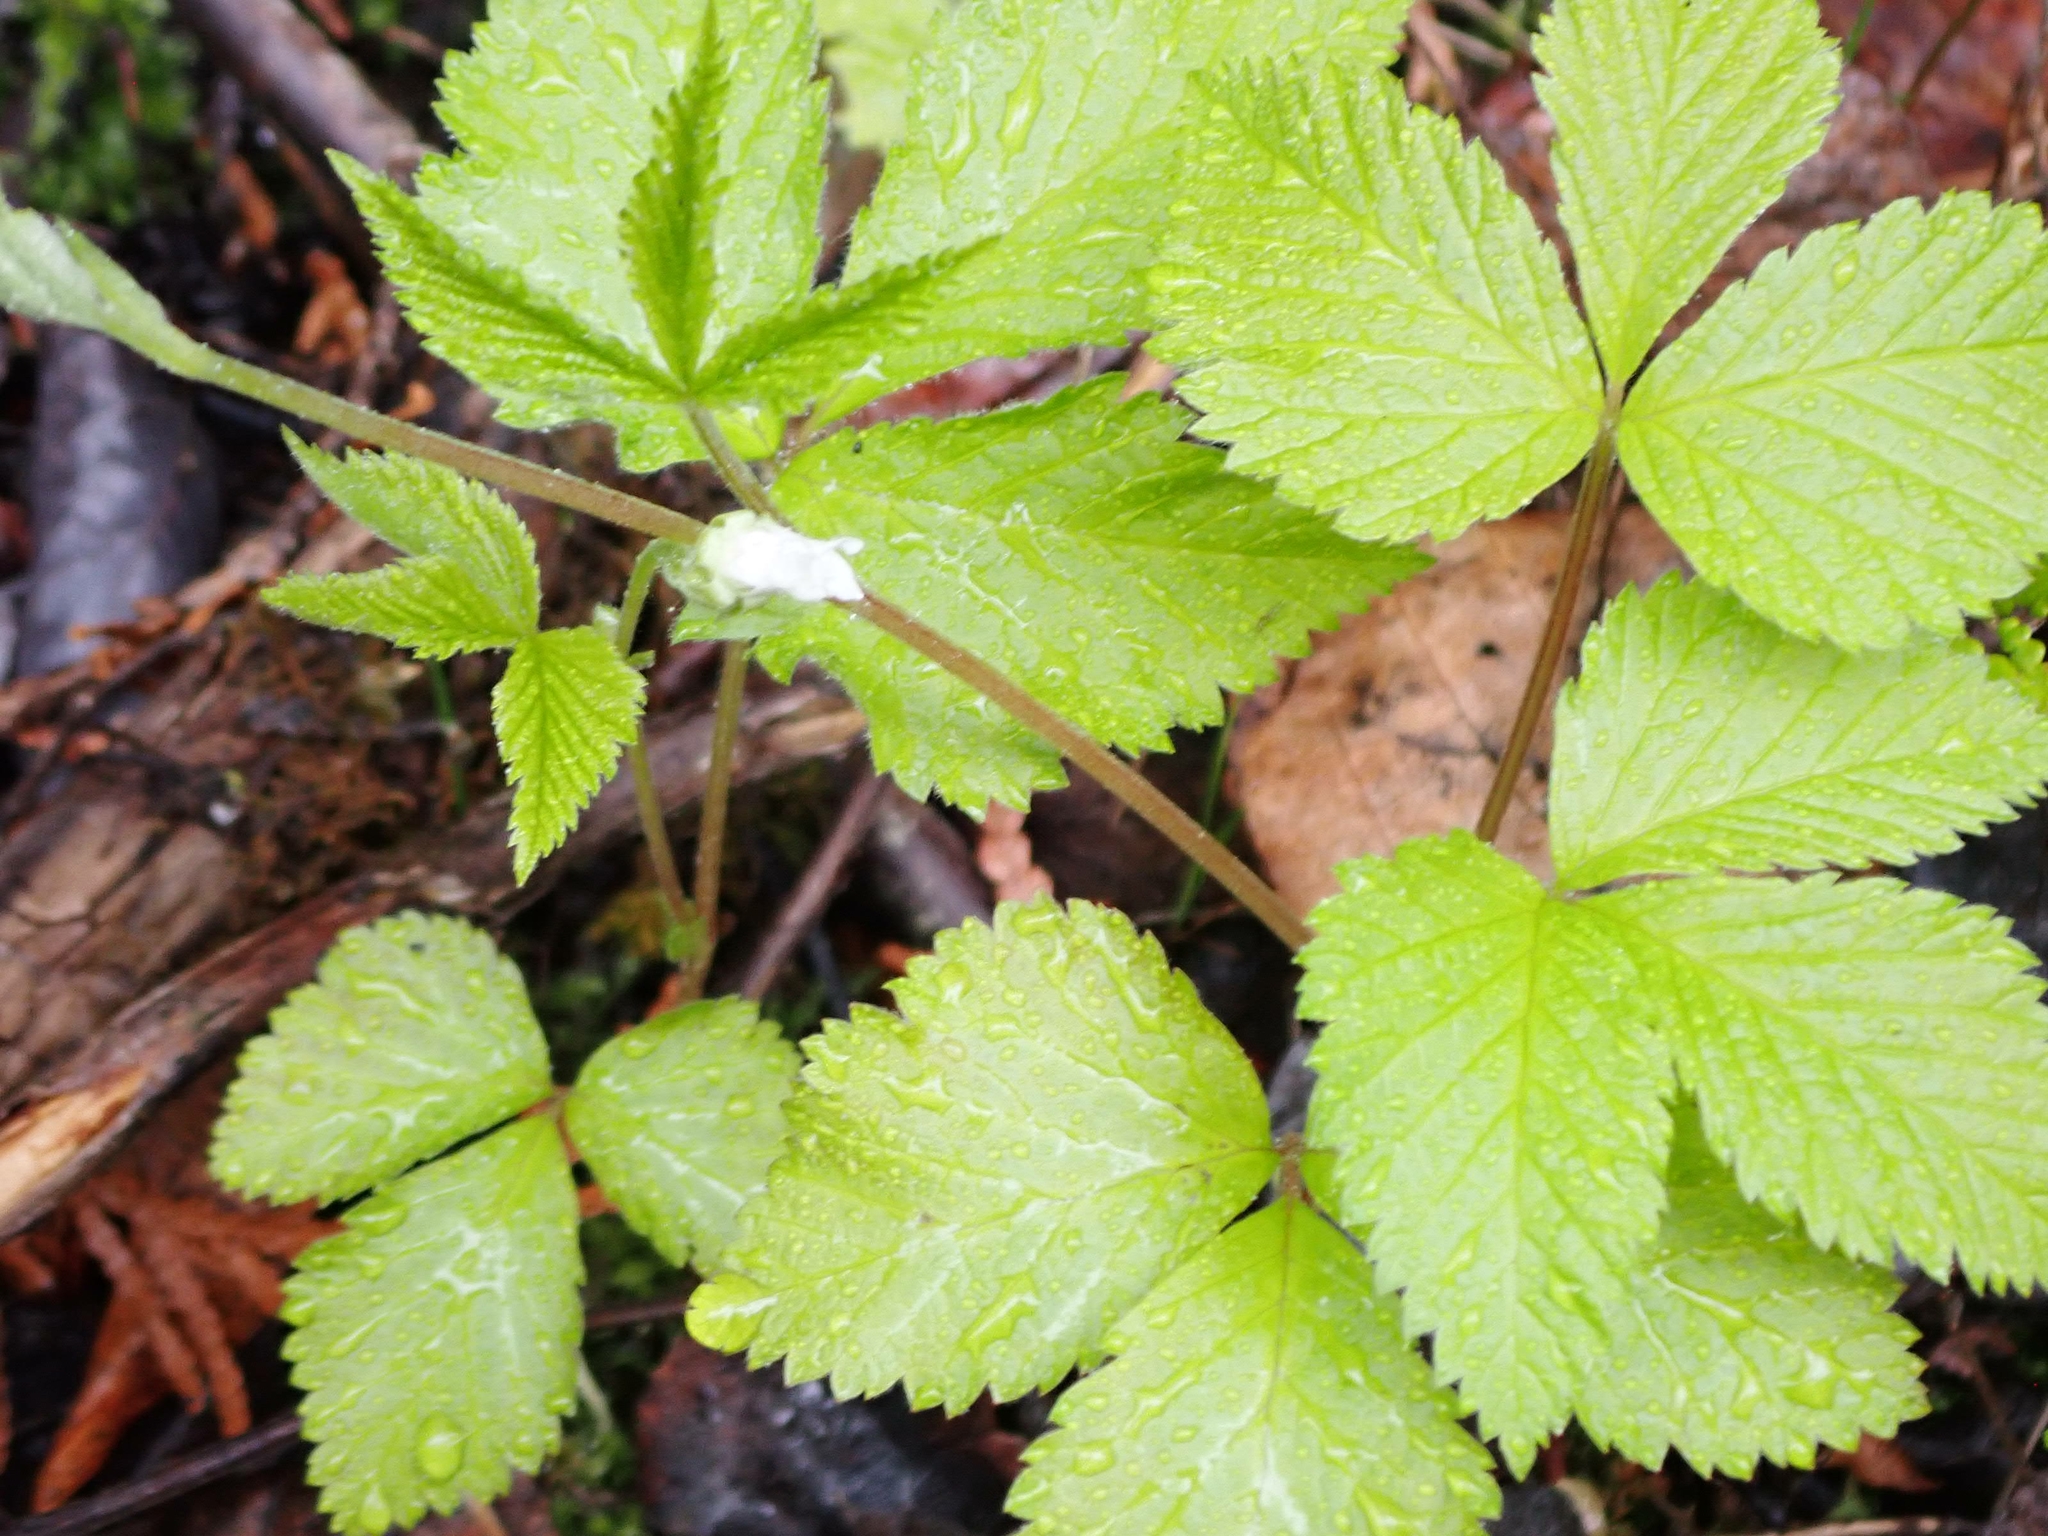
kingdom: Plantae
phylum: Tracheophyta
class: Magnoliopsida
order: Rosales
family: Rosaceae
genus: Rubus
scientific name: Rubus pubescens
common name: Dwarf raspberry
